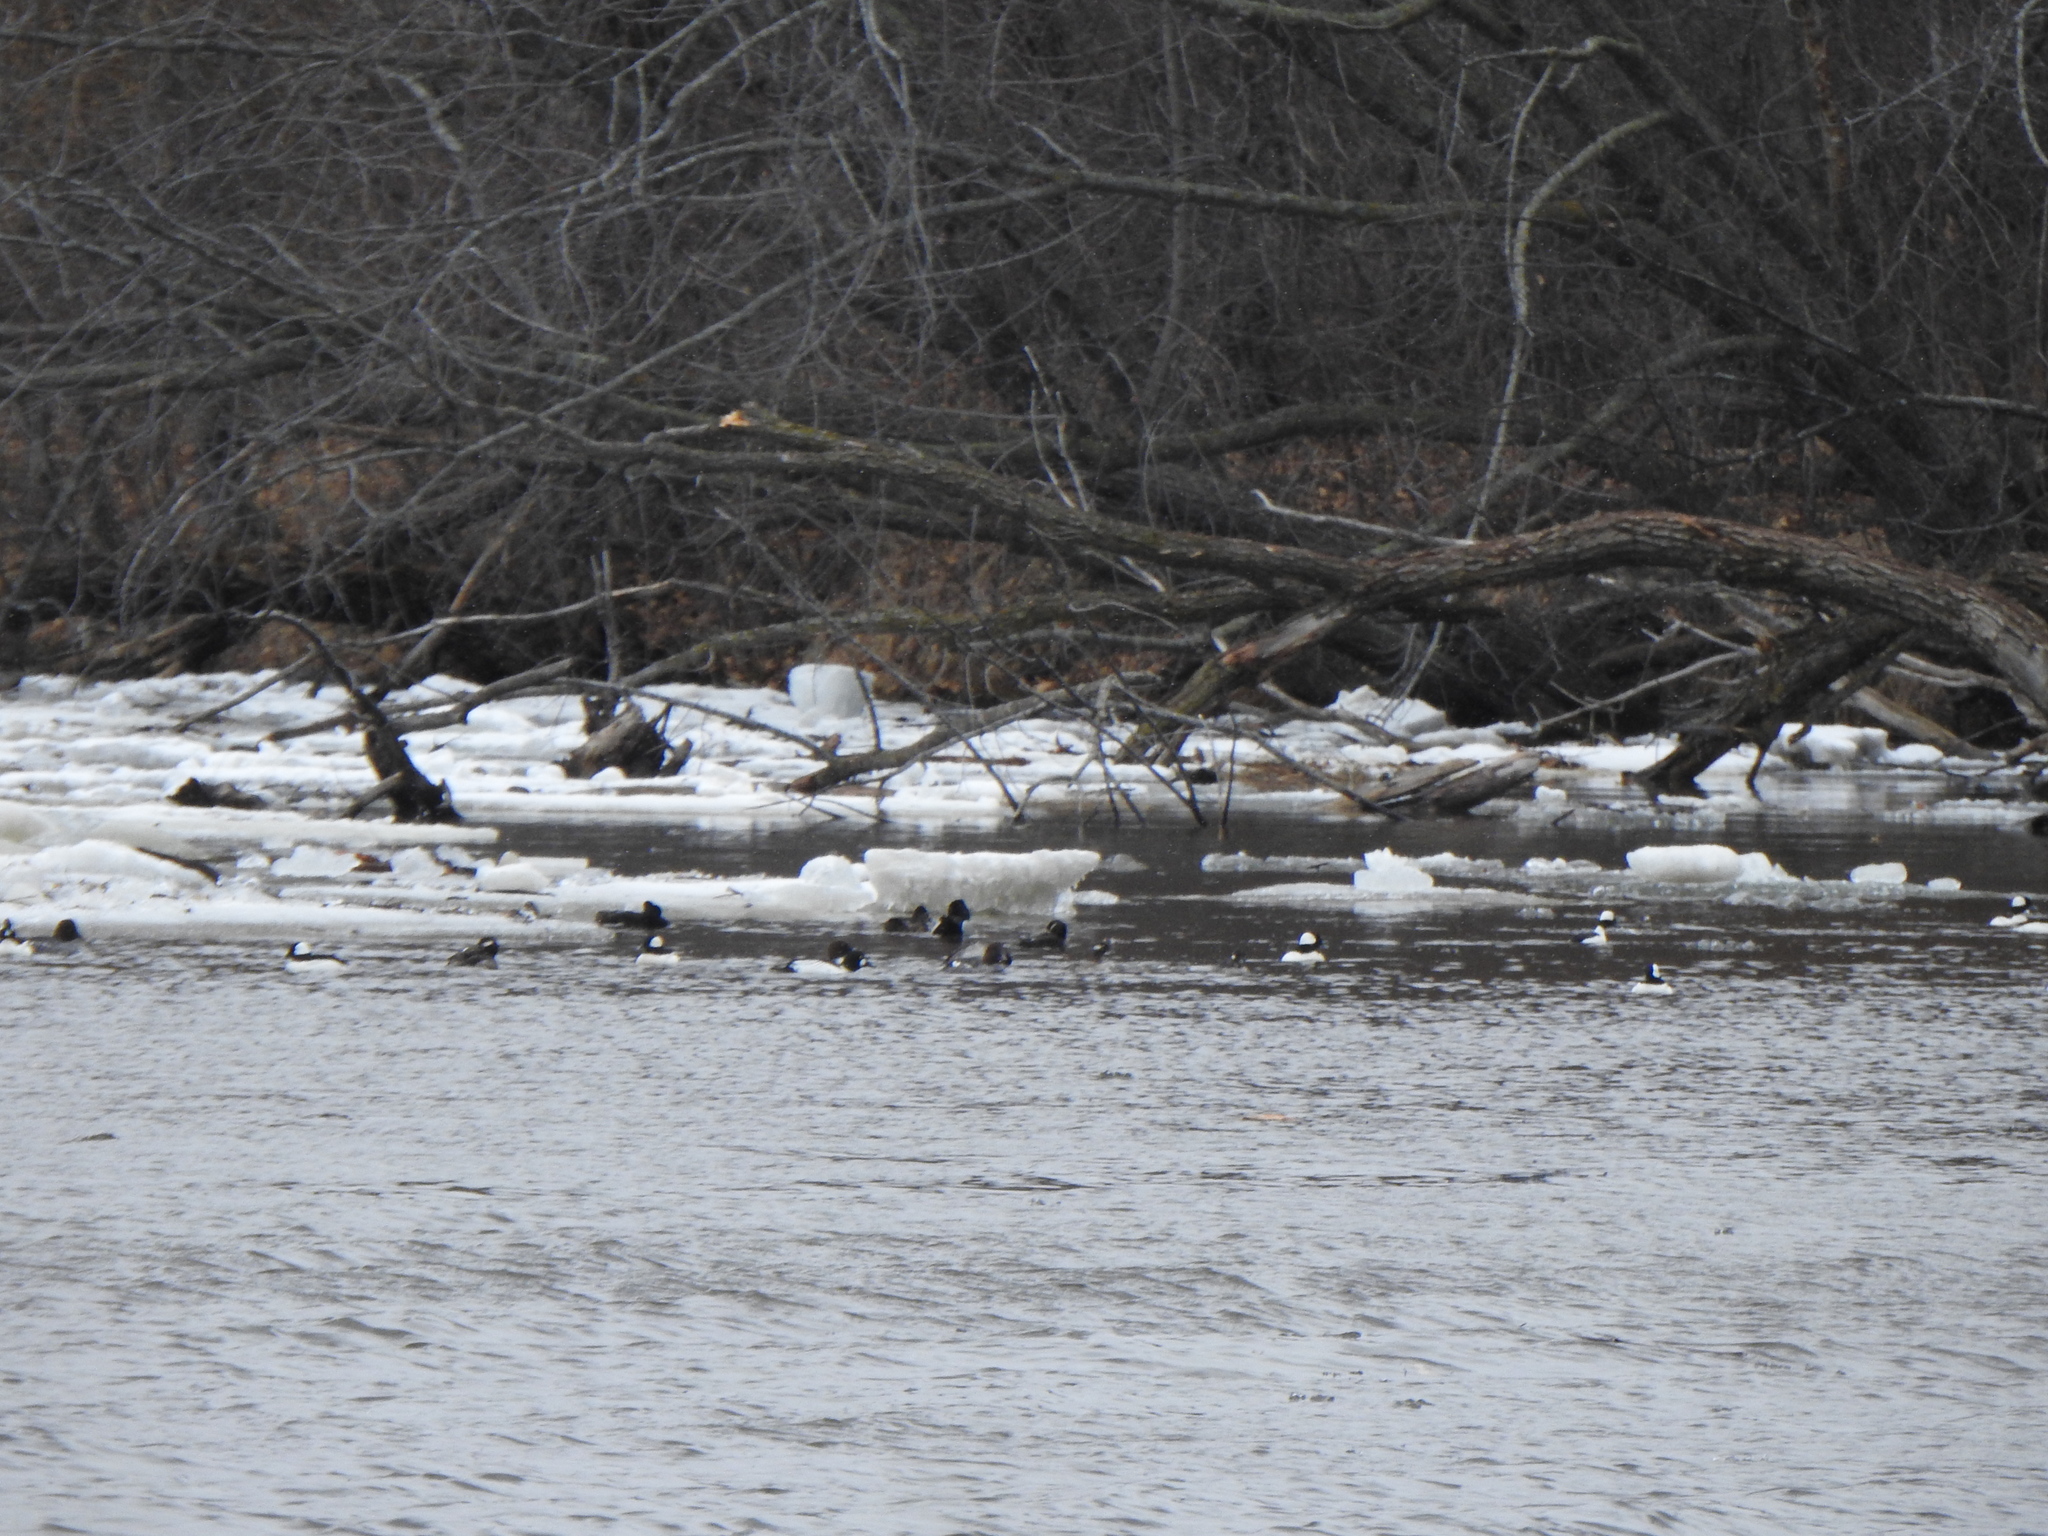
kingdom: Animalia
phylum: Chordata
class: Aves
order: Anseriformes
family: Anatidae
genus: Bucephala
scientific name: Bucephala albeola
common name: Bufflehead
